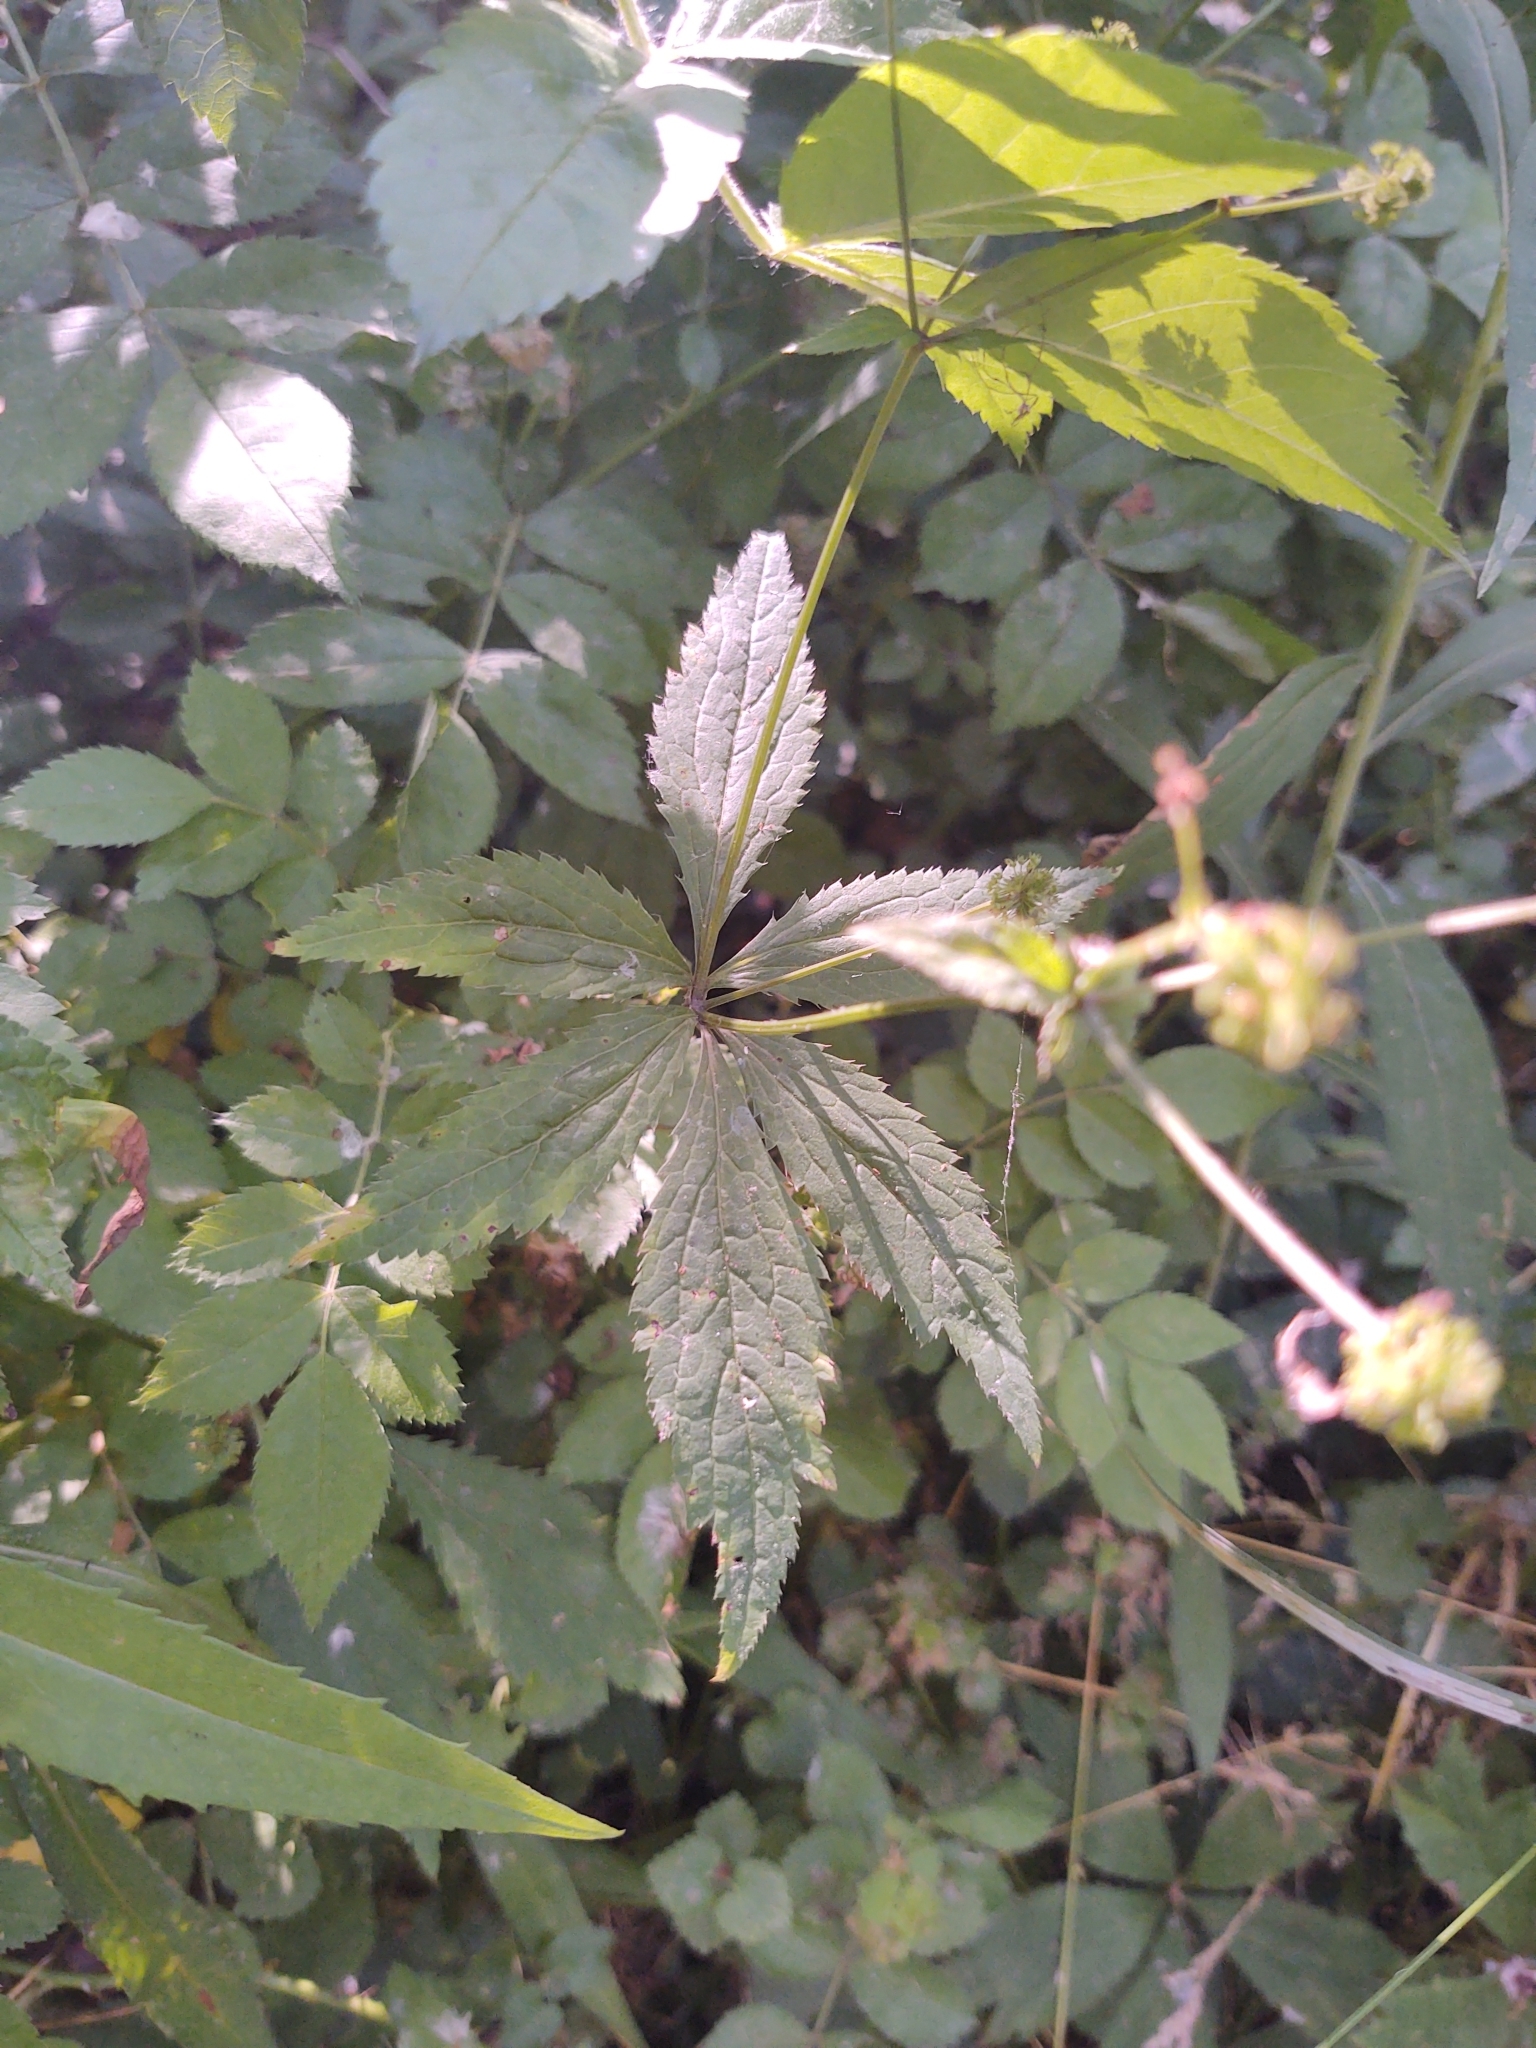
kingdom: Plantae
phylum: Tracheophyta
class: Magnoliopsida
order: Apiales
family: Apiaceae
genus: Sanicula
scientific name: Sanicula odorata
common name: Cluster sanicle
